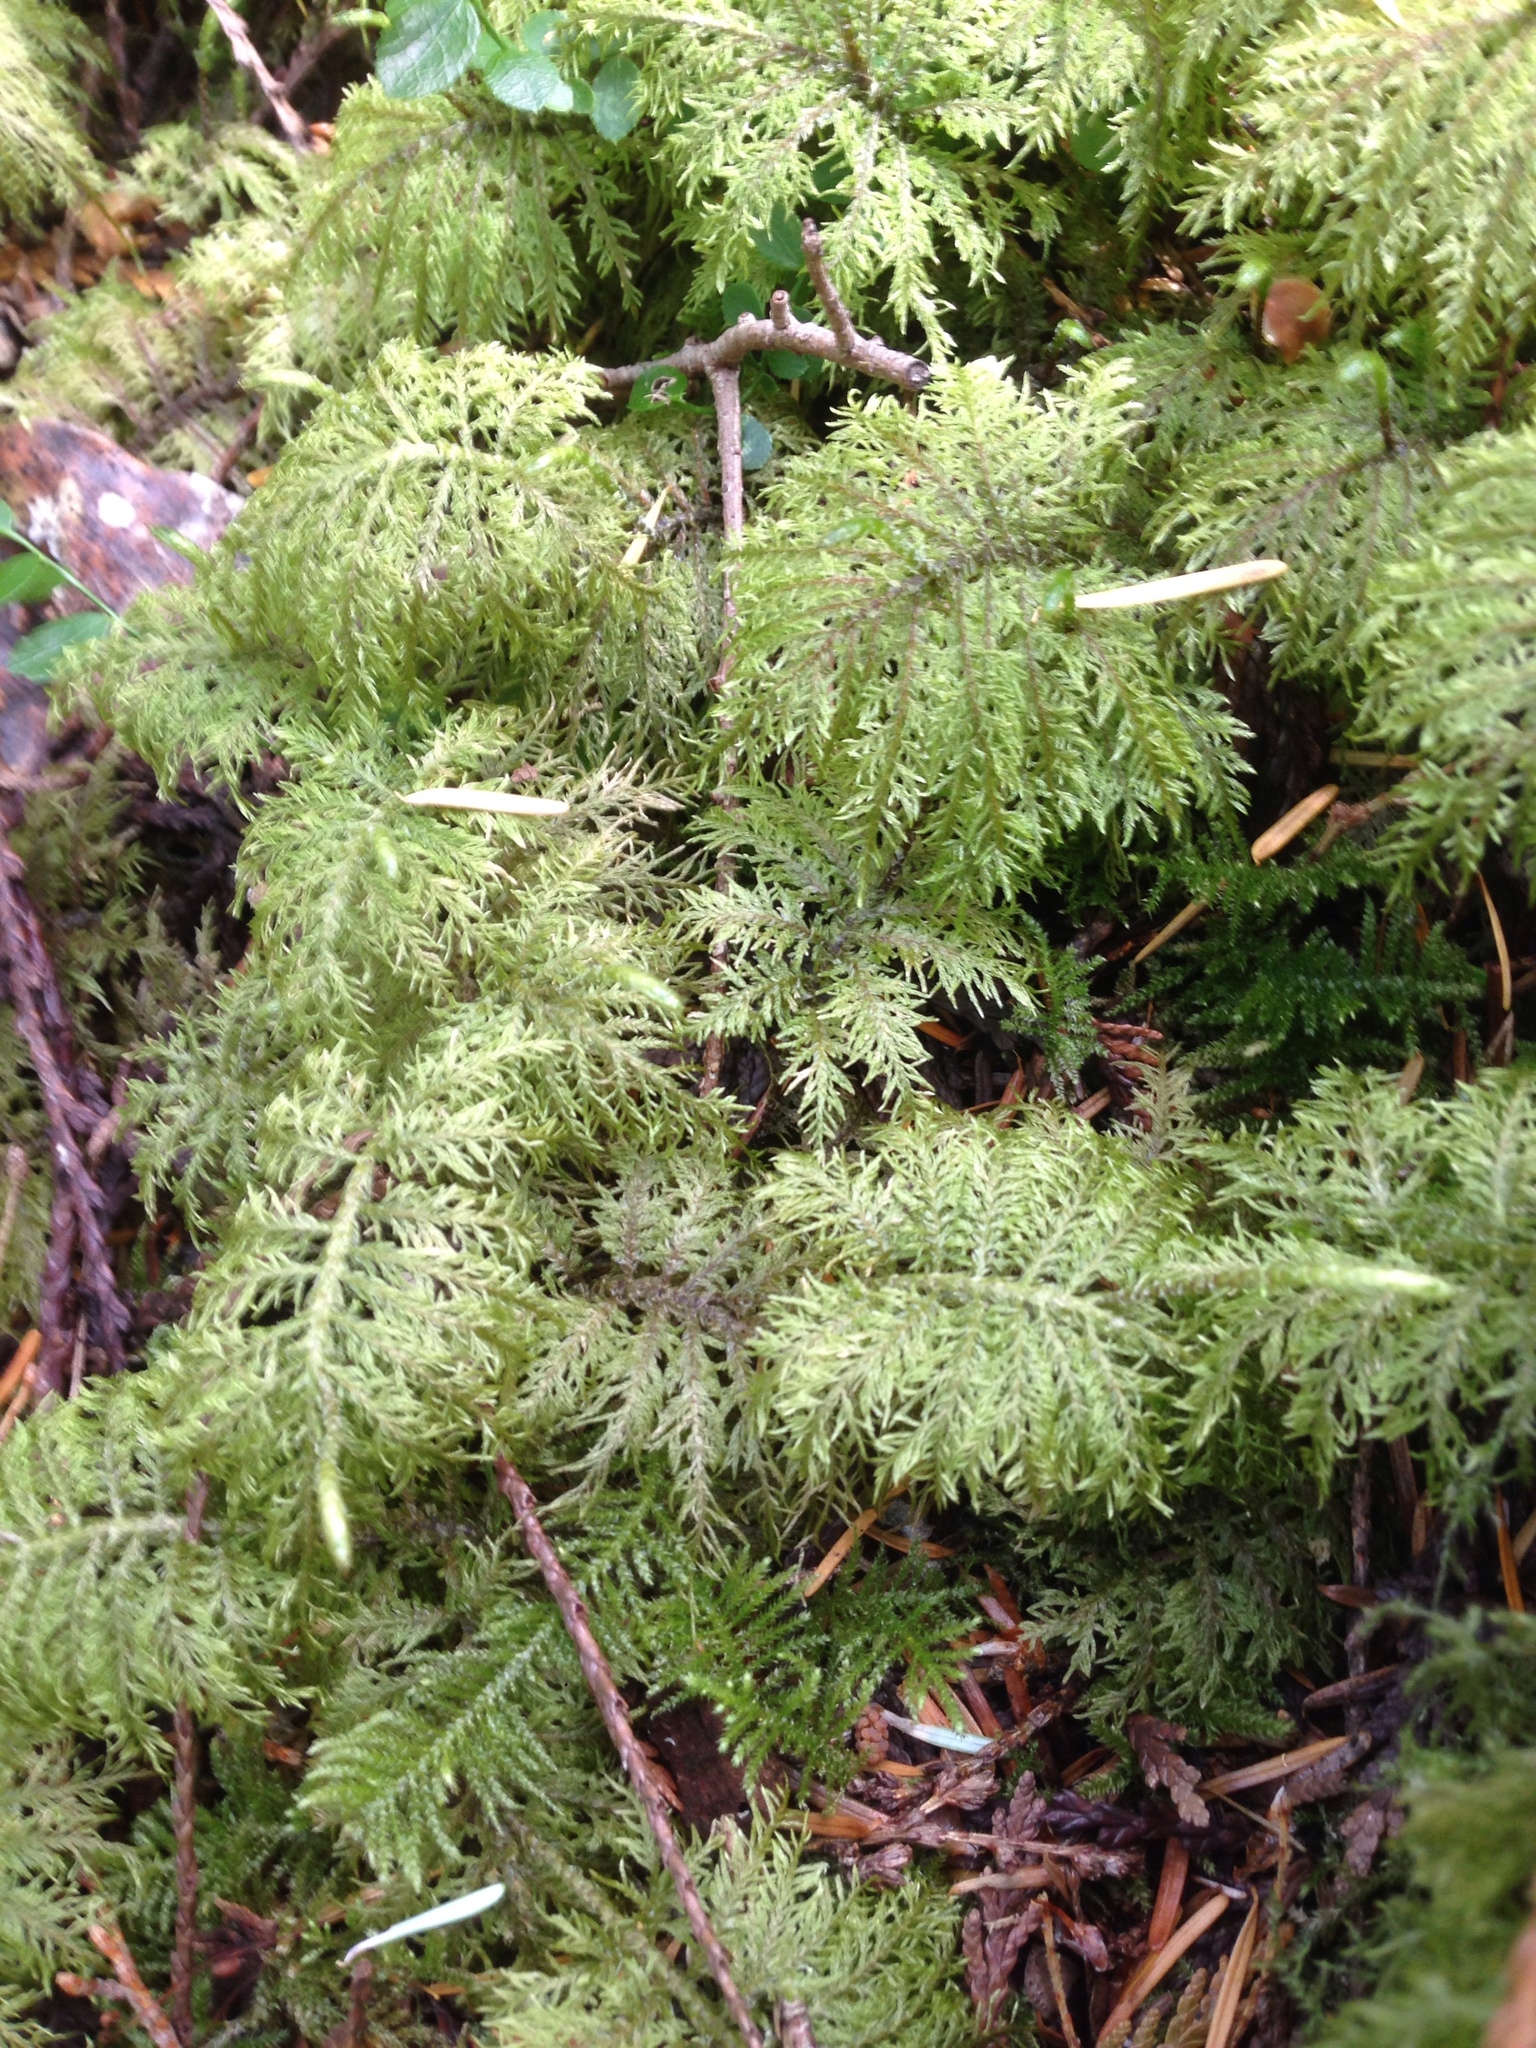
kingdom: Plantae
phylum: Bryophyta
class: Bryopsida
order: Hypnales
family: Hylocomiaceae
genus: Hylocomium
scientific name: Hylocomium splendens
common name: Stairstep moss
